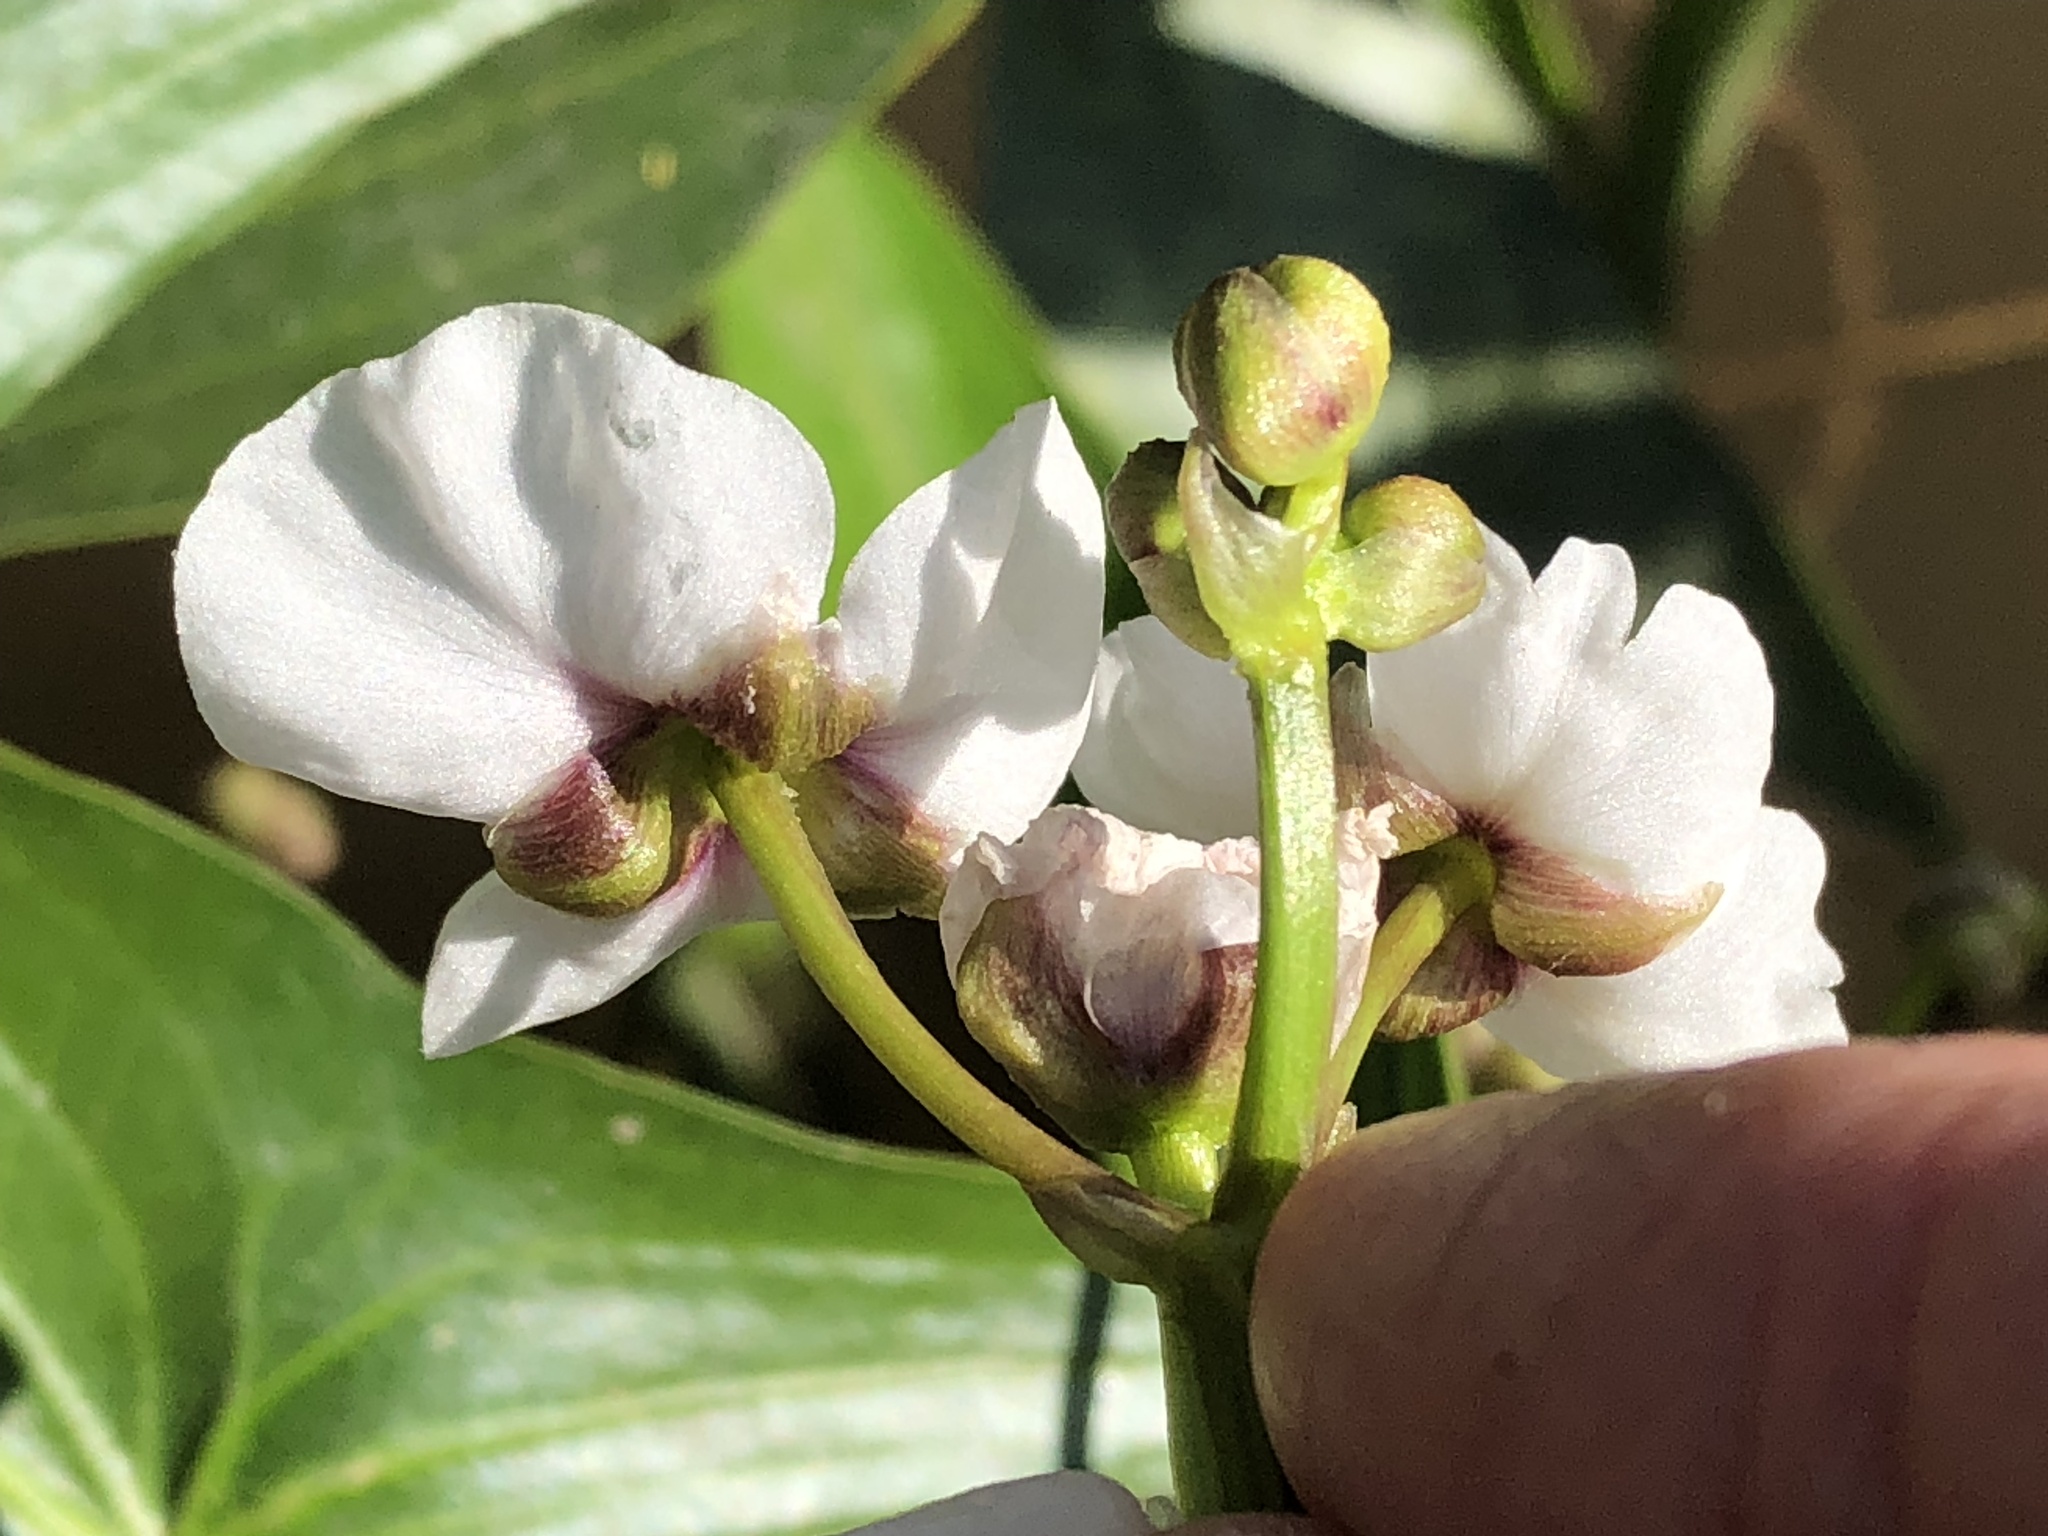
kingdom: Plantae
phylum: Tracheophyta
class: Liliopsida
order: Alismatales
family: Alismataceae
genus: Sagittaria
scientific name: Sagittaria sagittifolia
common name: Arrowhead
